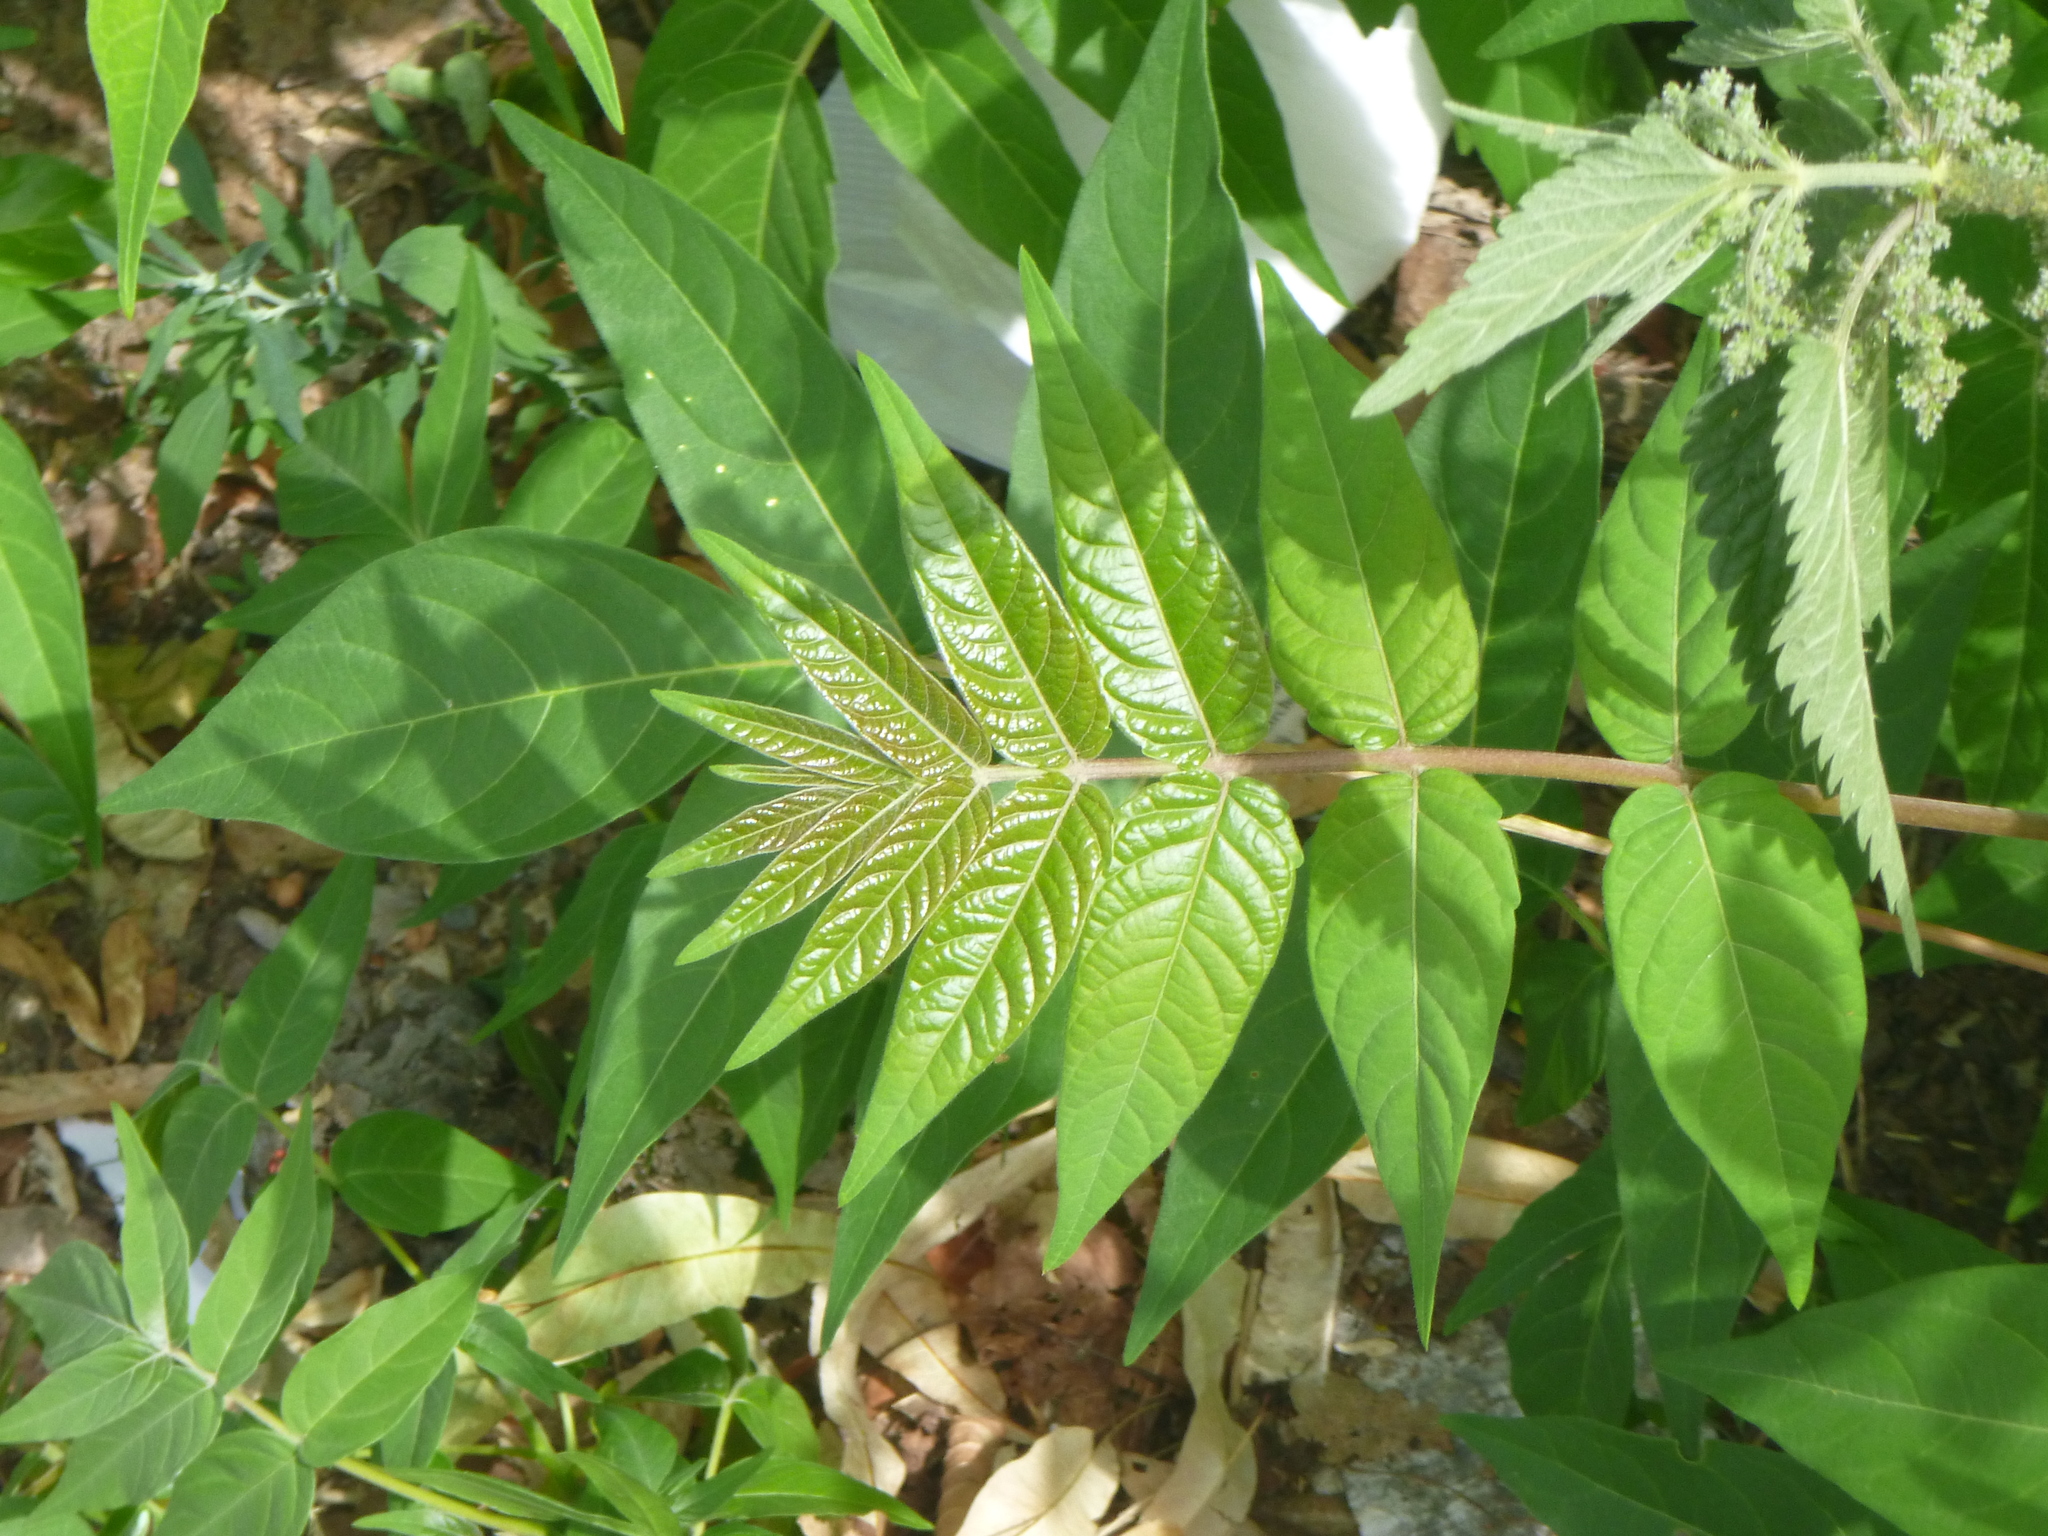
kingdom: Plantae
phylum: Tracheophyta
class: Magnoliopsida
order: Sapindales
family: Simaroubaceae
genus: Ailanthus
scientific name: Ailanthus altissima
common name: Tree-of-heaven
